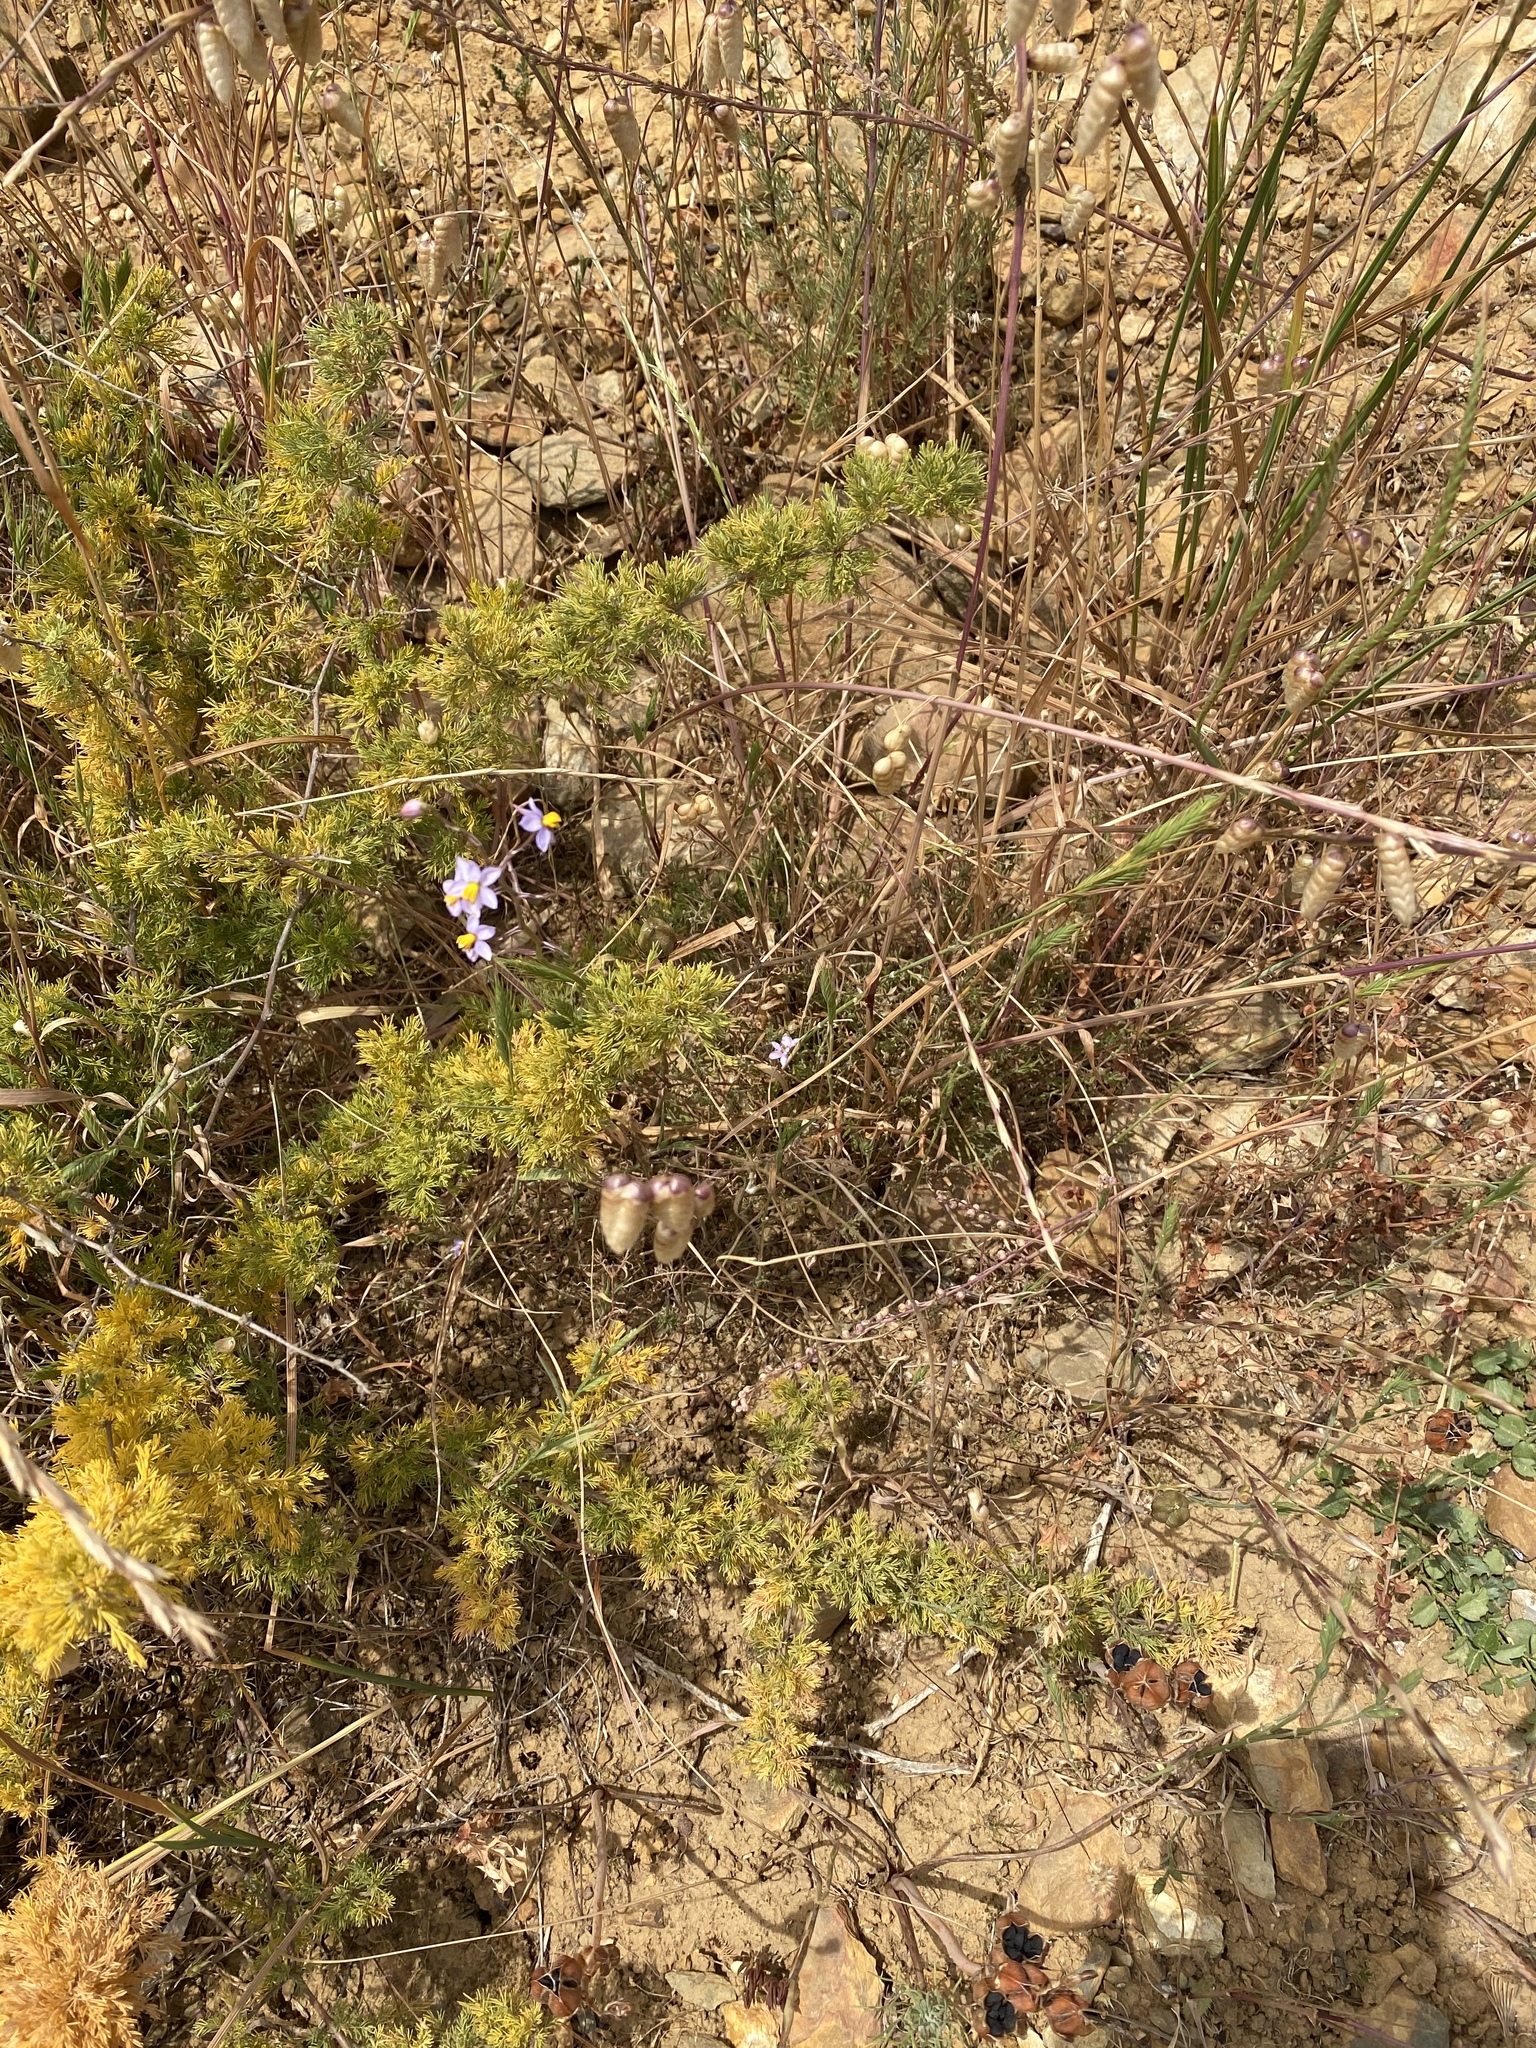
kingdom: Plantae
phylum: Tracheophyta
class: Liliopsida
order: Asparagales
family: Tecophilaeaceae
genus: Cyanella
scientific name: Cyanella hyacinthoides
